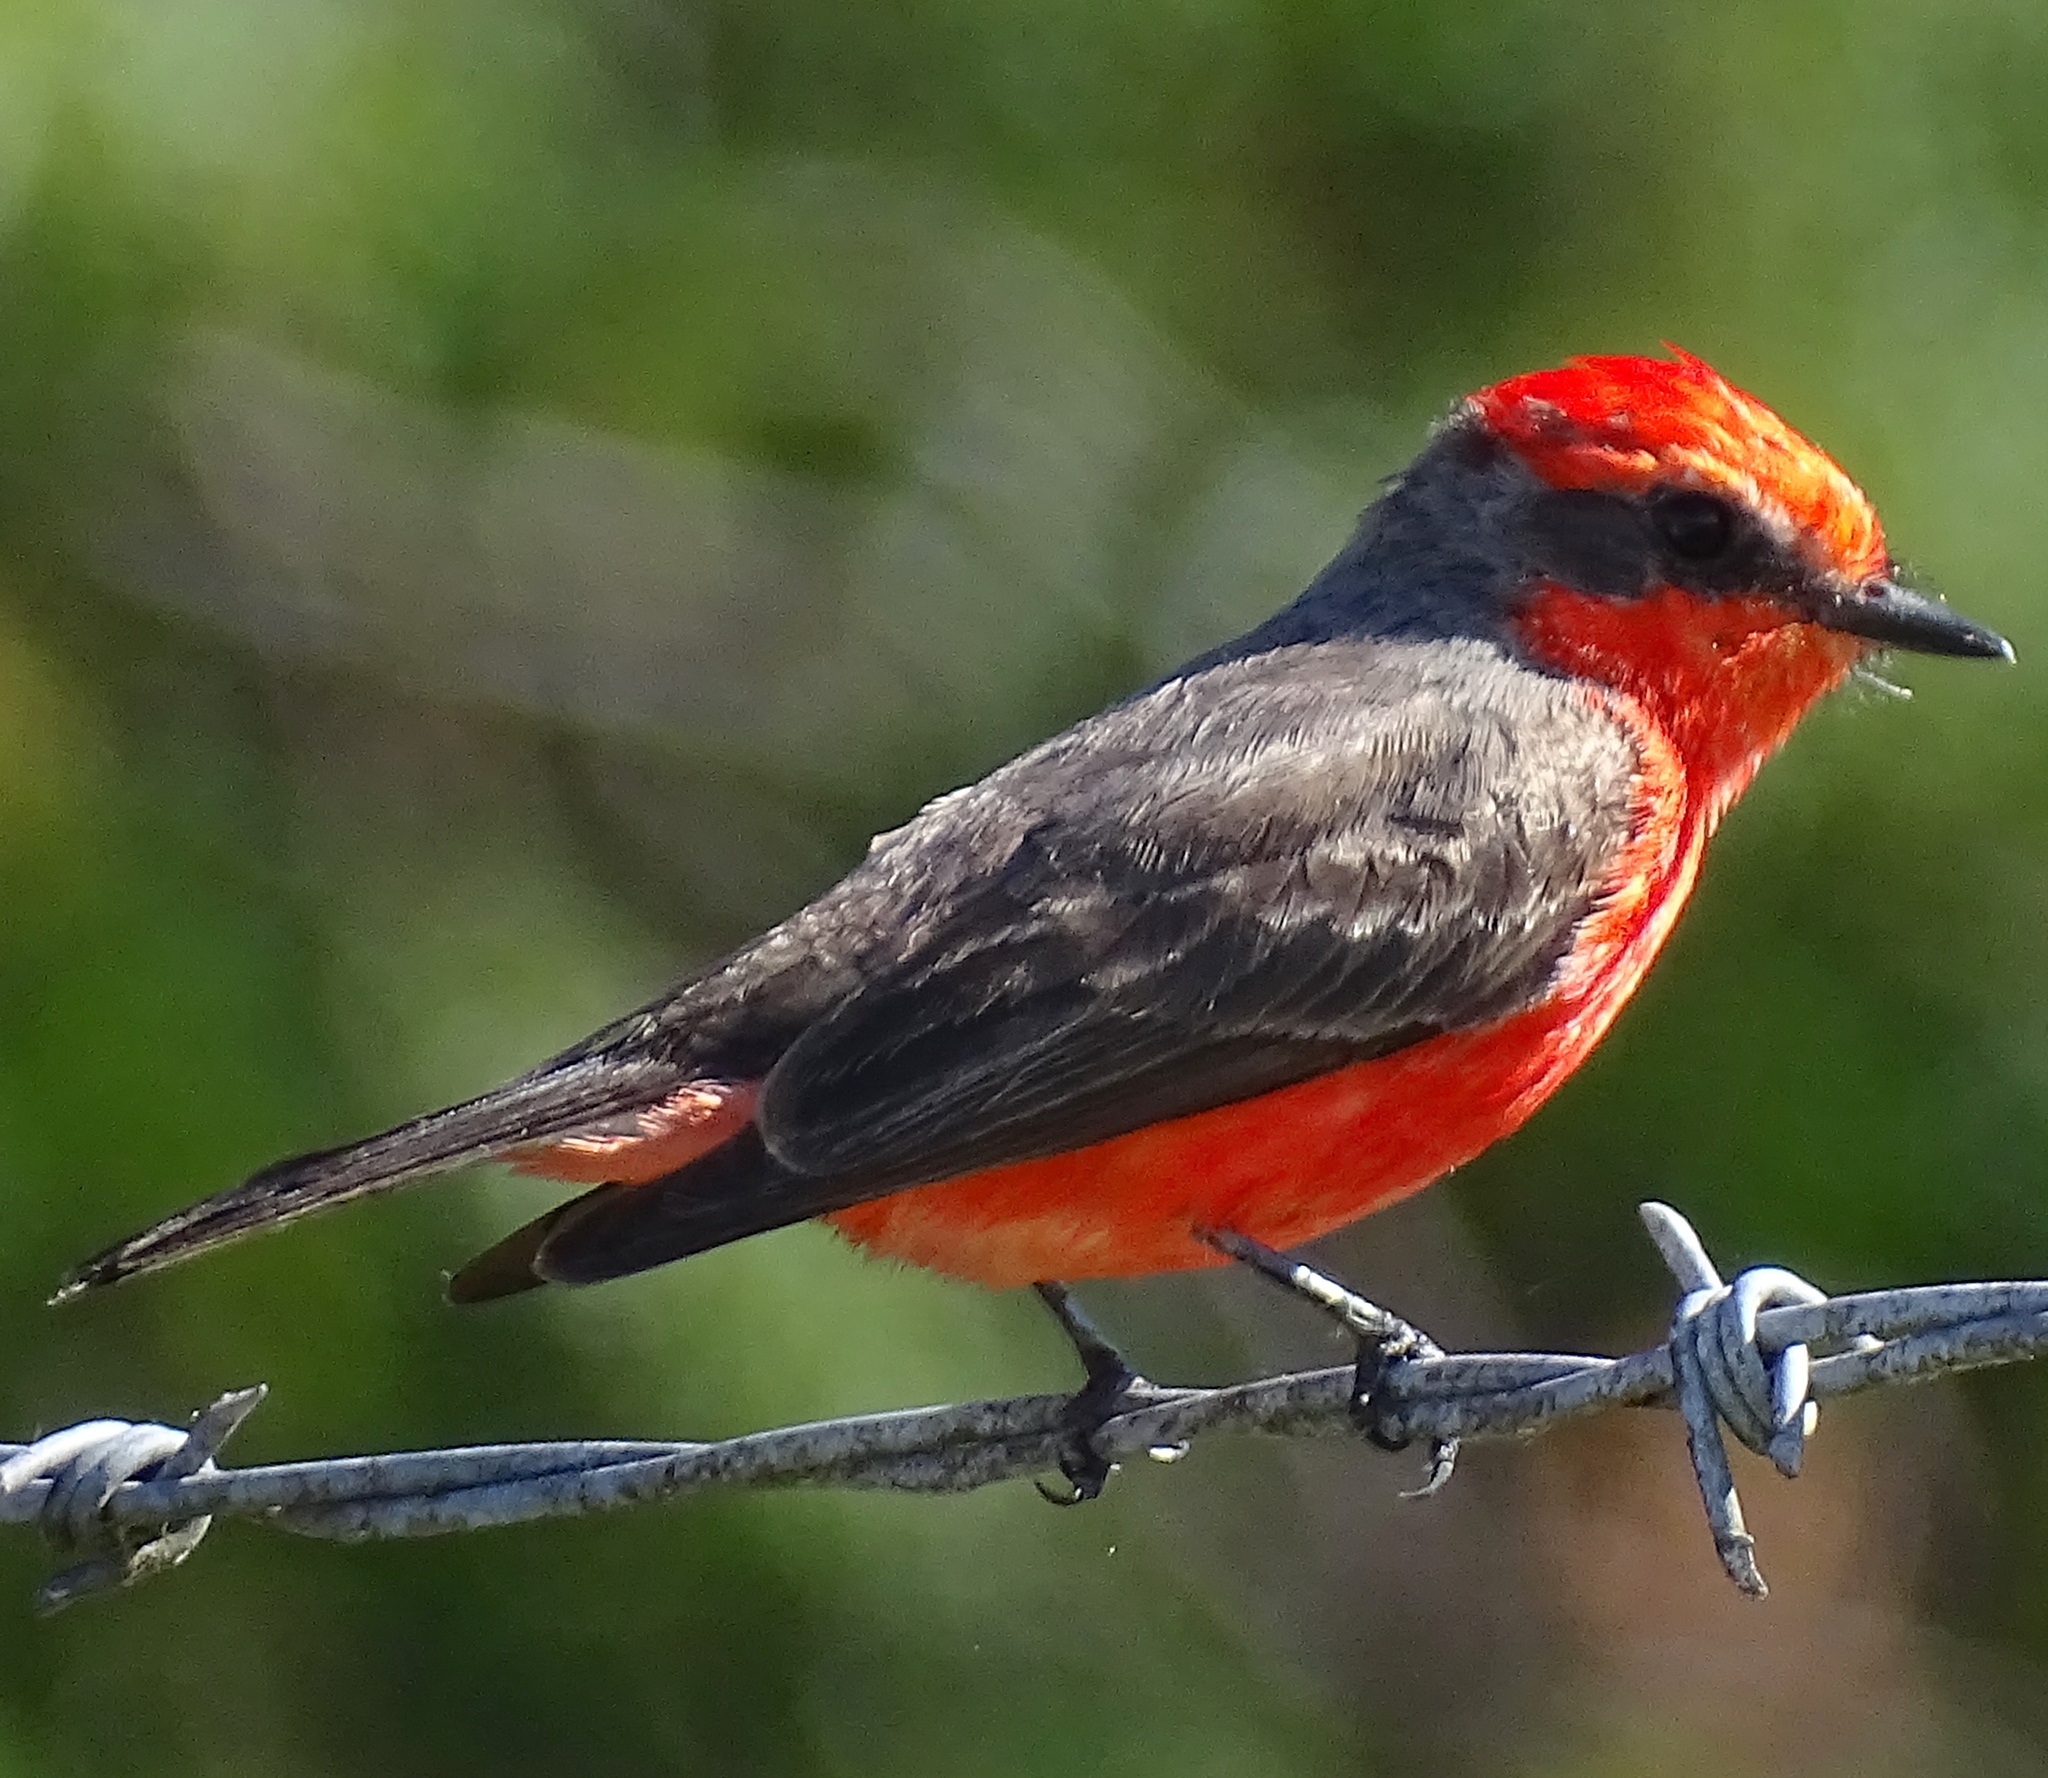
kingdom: Animalia
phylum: Chordata
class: Aves
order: Passeriformes
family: Tyrannidae
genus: Pyrocephalus
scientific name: Pyrocephalus rubinus
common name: Vermilion flycatcher
